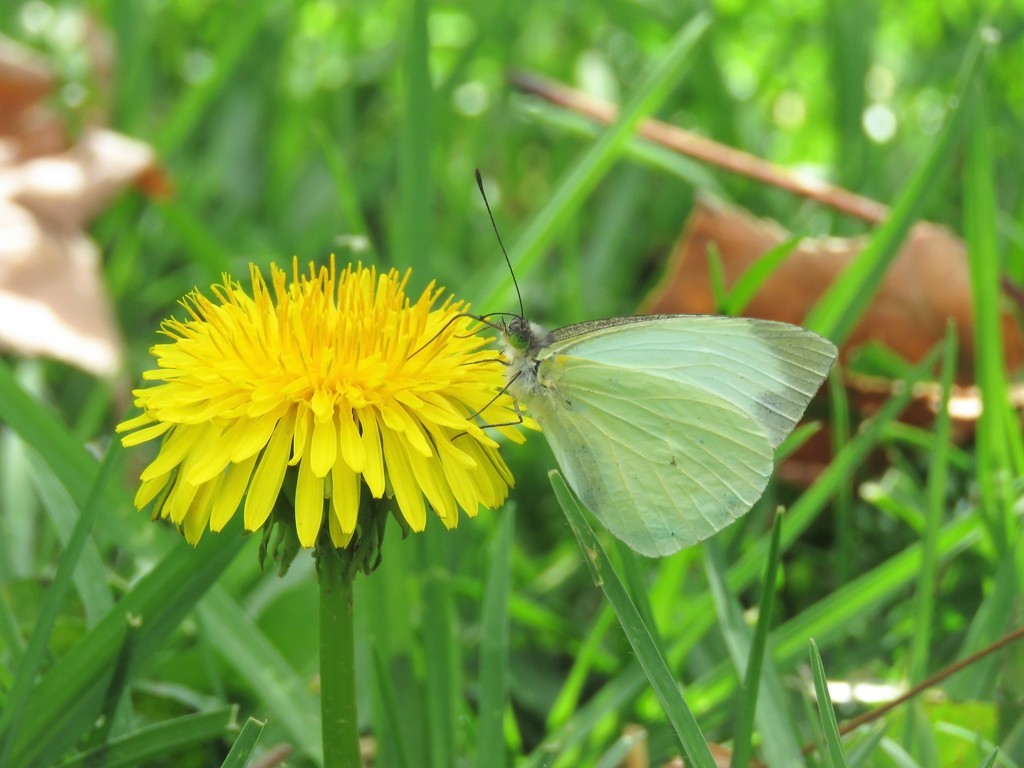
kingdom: Plantae
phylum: Tracheophyta
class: Magnoliopsida
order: Asterales
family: Asteraceae
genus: Taraxacum
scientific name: Taraxacum officinale
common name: Common dandelion
